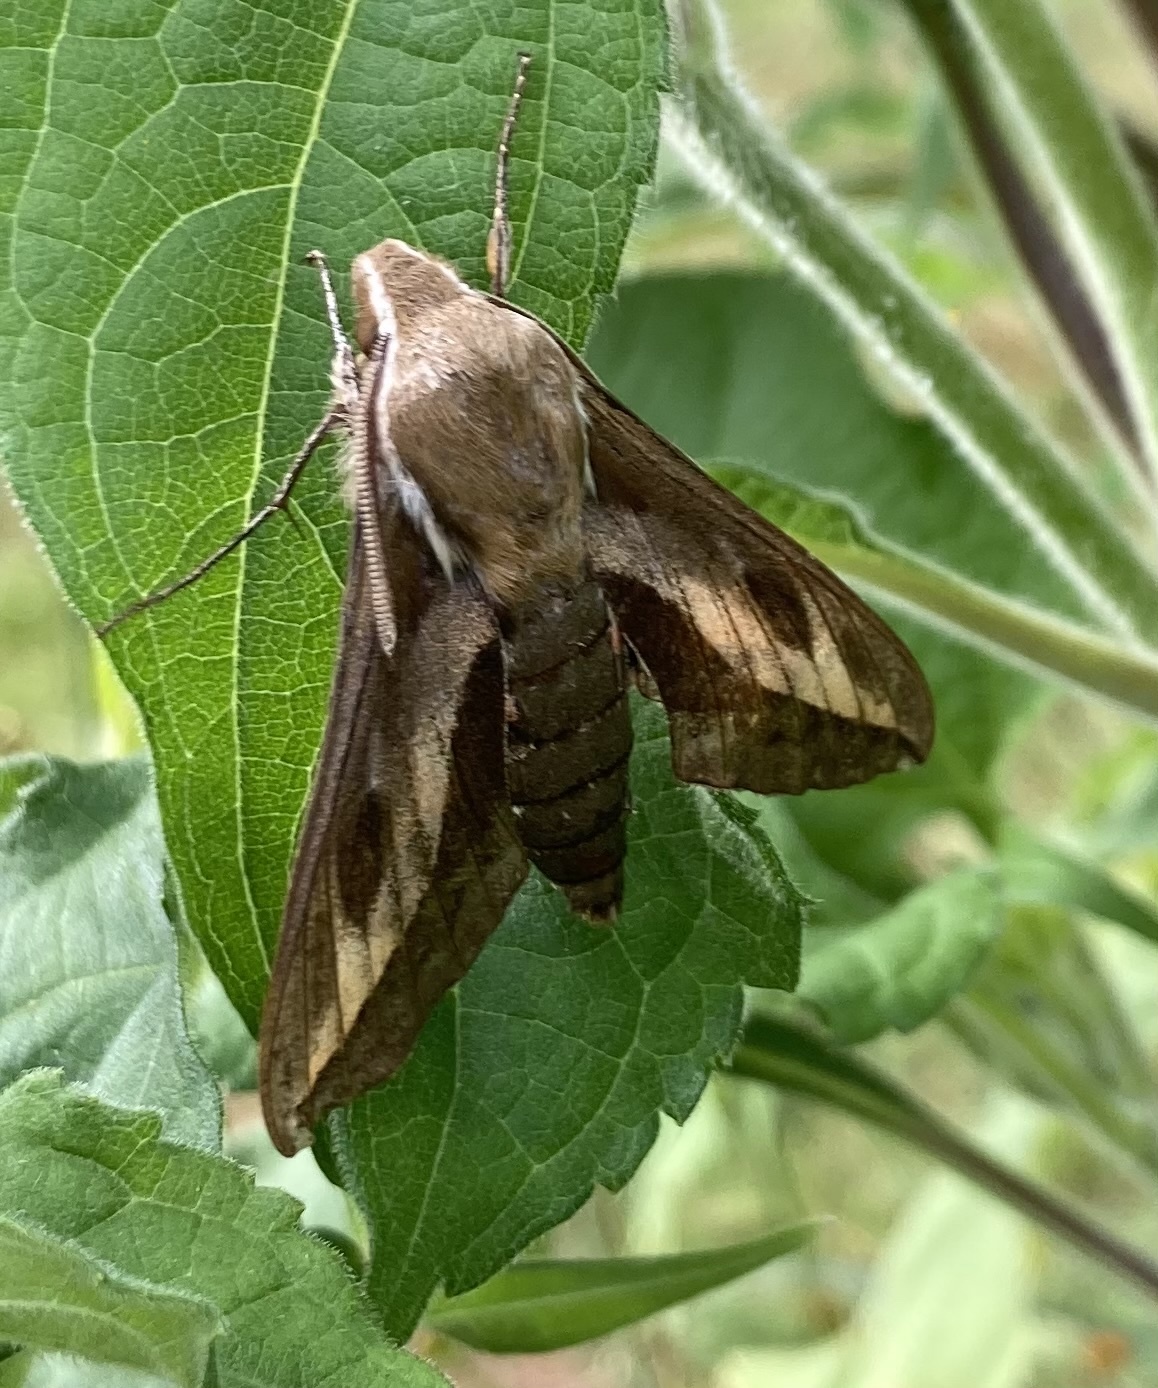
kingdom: Animalia
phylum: Arthropoda
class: Insecta
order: Lepidoptera
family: Sphingidae
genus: Hyles
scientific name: Hyles gallii
